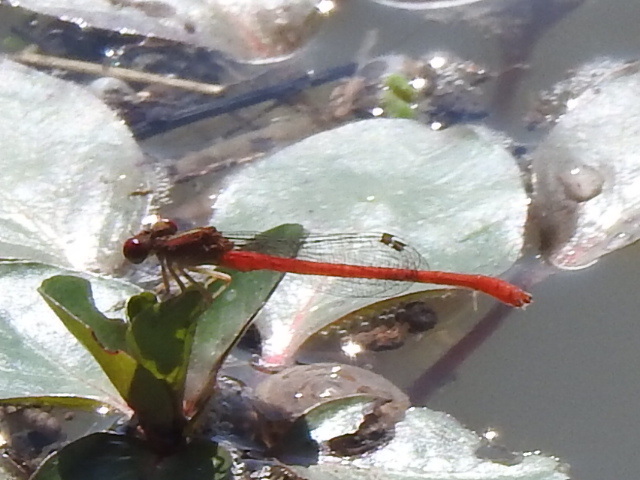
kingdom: Animalia
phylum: Arthropoda
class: Insecta
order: Odonata
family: Coenagrionidae
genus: Telebasis
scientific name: Telebasis salva
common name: Desert firetail
